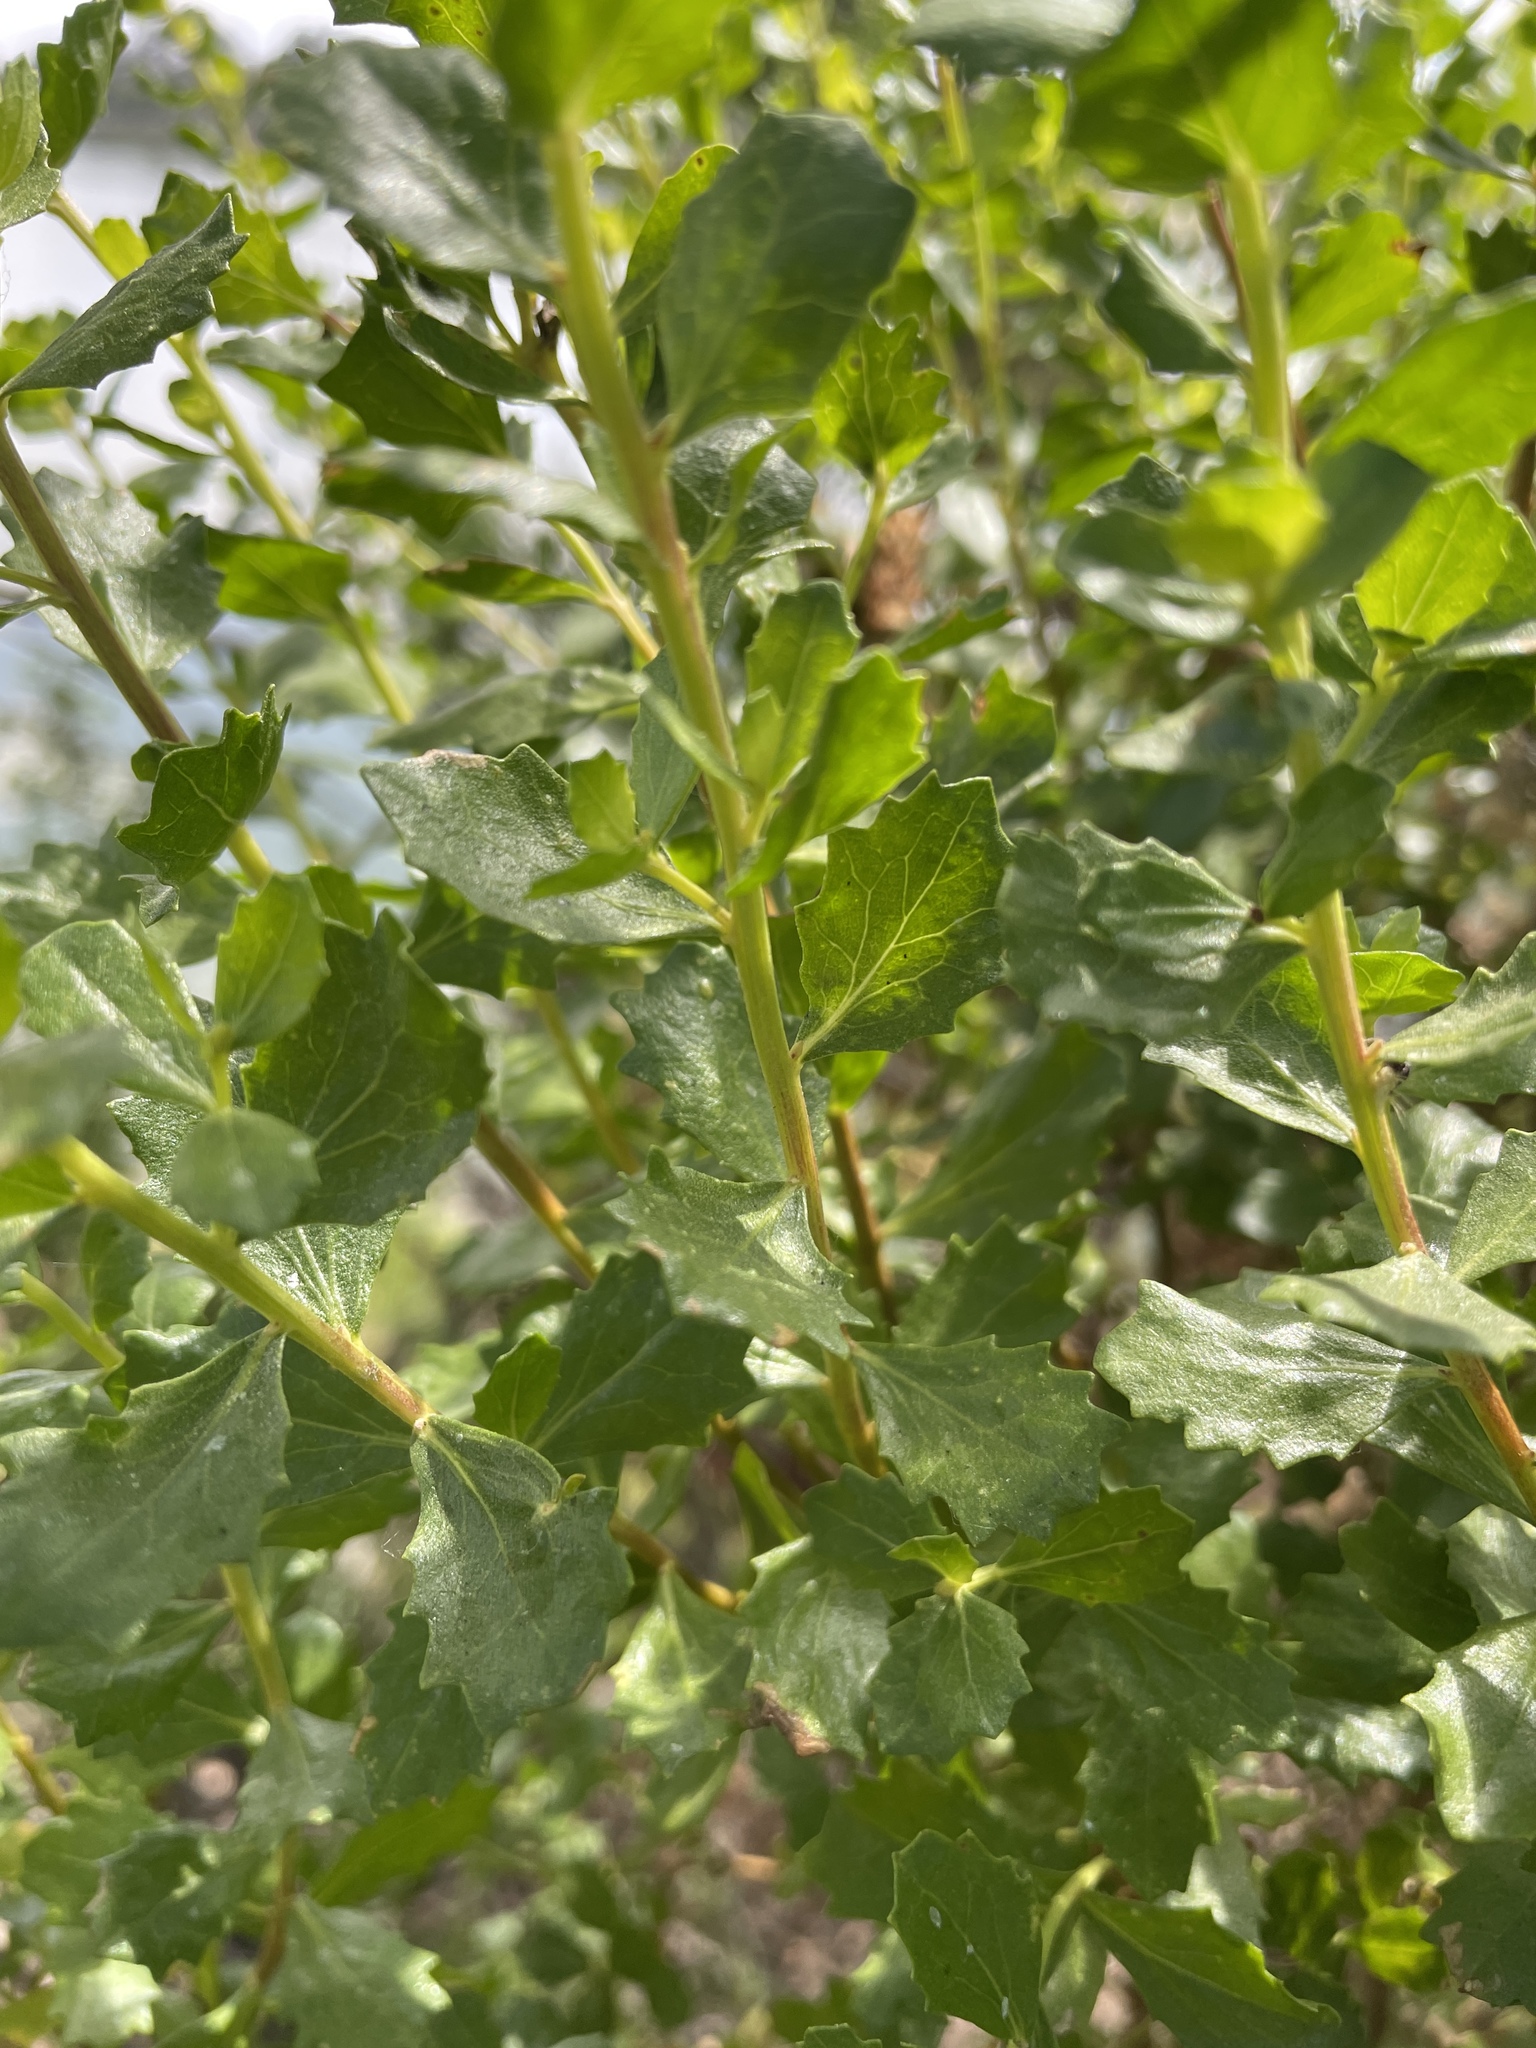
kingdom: Plantae
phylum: Tracheophyta
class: Magnoliopsida
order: Asterales
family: Asteraceae
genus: Baccharis
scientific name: Baccharis pilularis
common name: Coyotebrush
